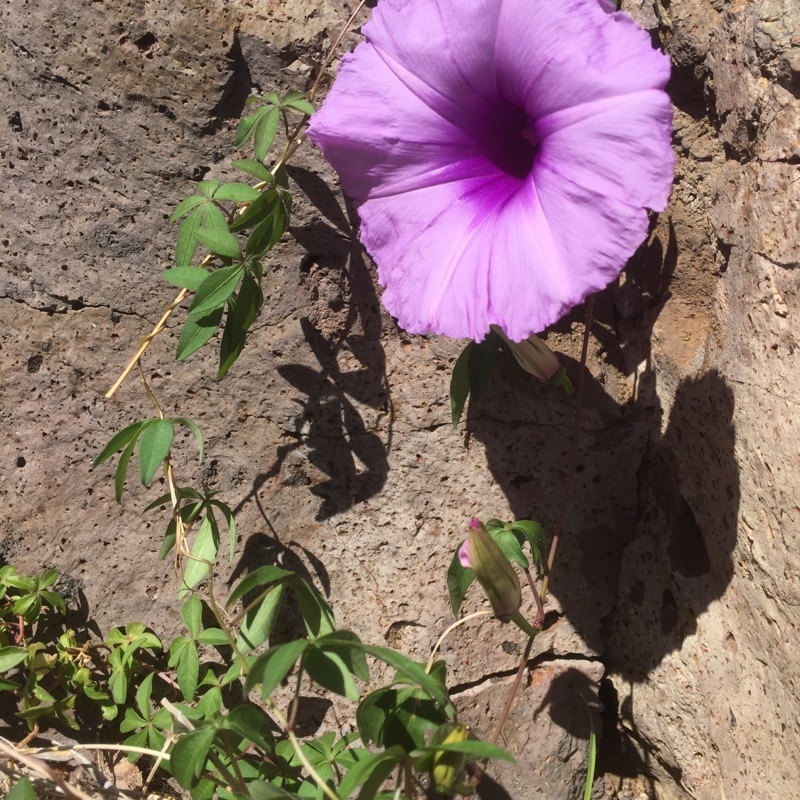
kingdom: Plantae
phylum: Tracheophyta
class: Magnoliopsida
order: Solanales
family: Convolvulaceae
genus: Ipomoea
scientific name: Ipomoea cairica
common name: Mile a minute vine
